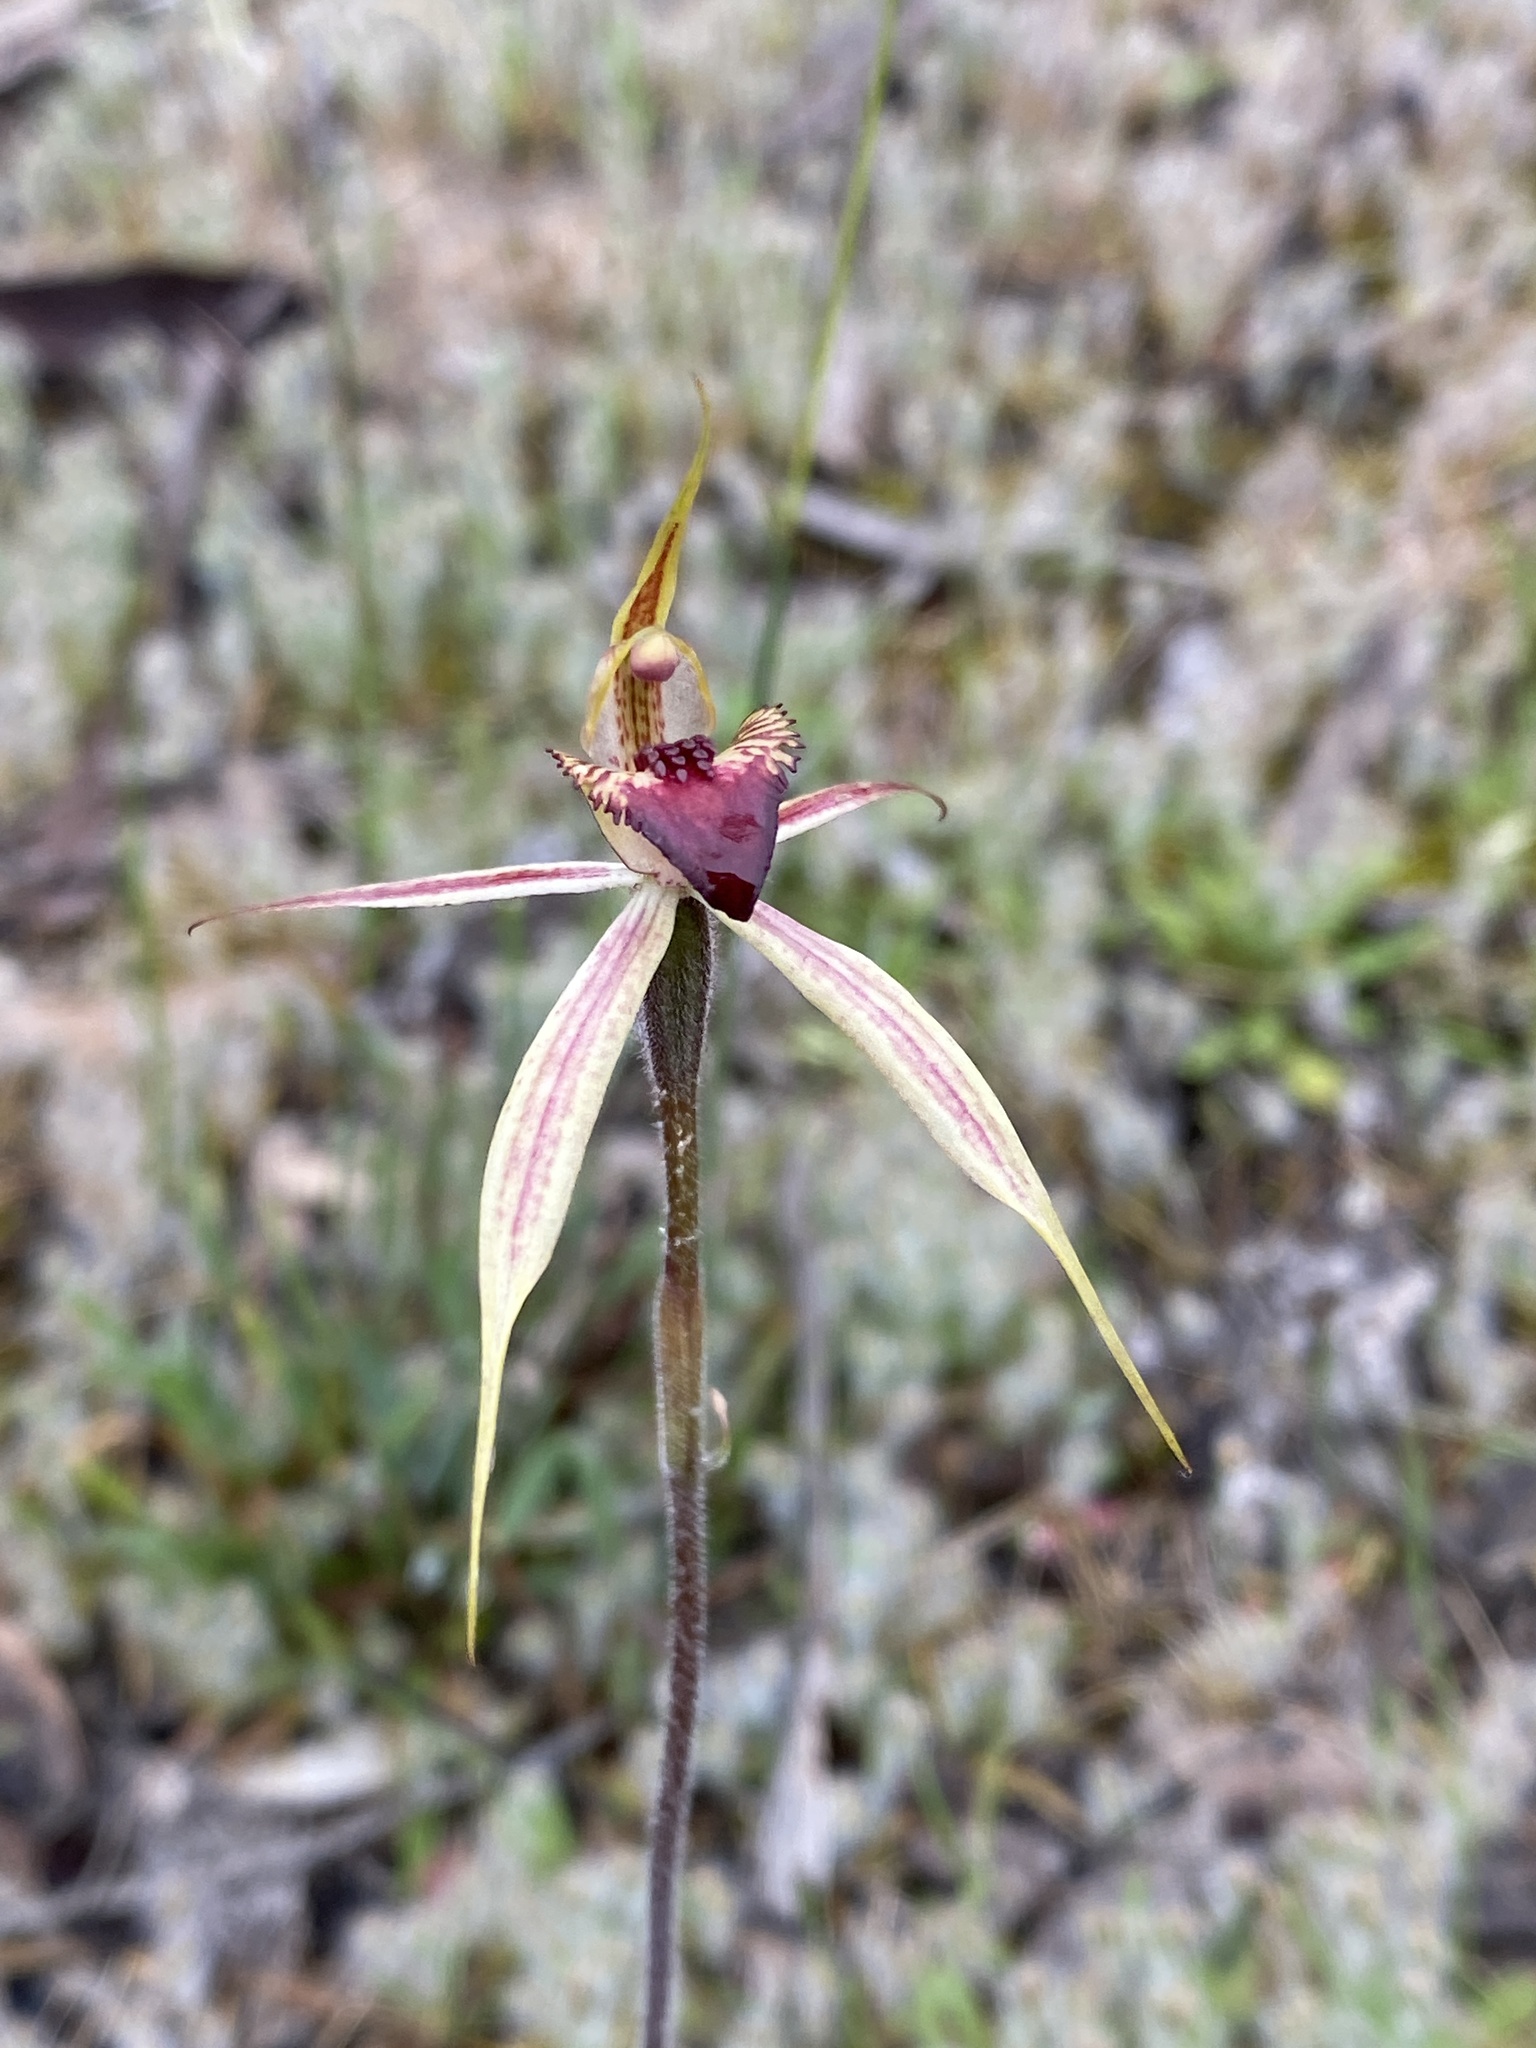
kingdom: Plantae
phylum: Tracheophyta
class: Liliopsida
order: Asparagales
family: Orchidaceae
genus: Caladenia
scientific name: Caladenia
